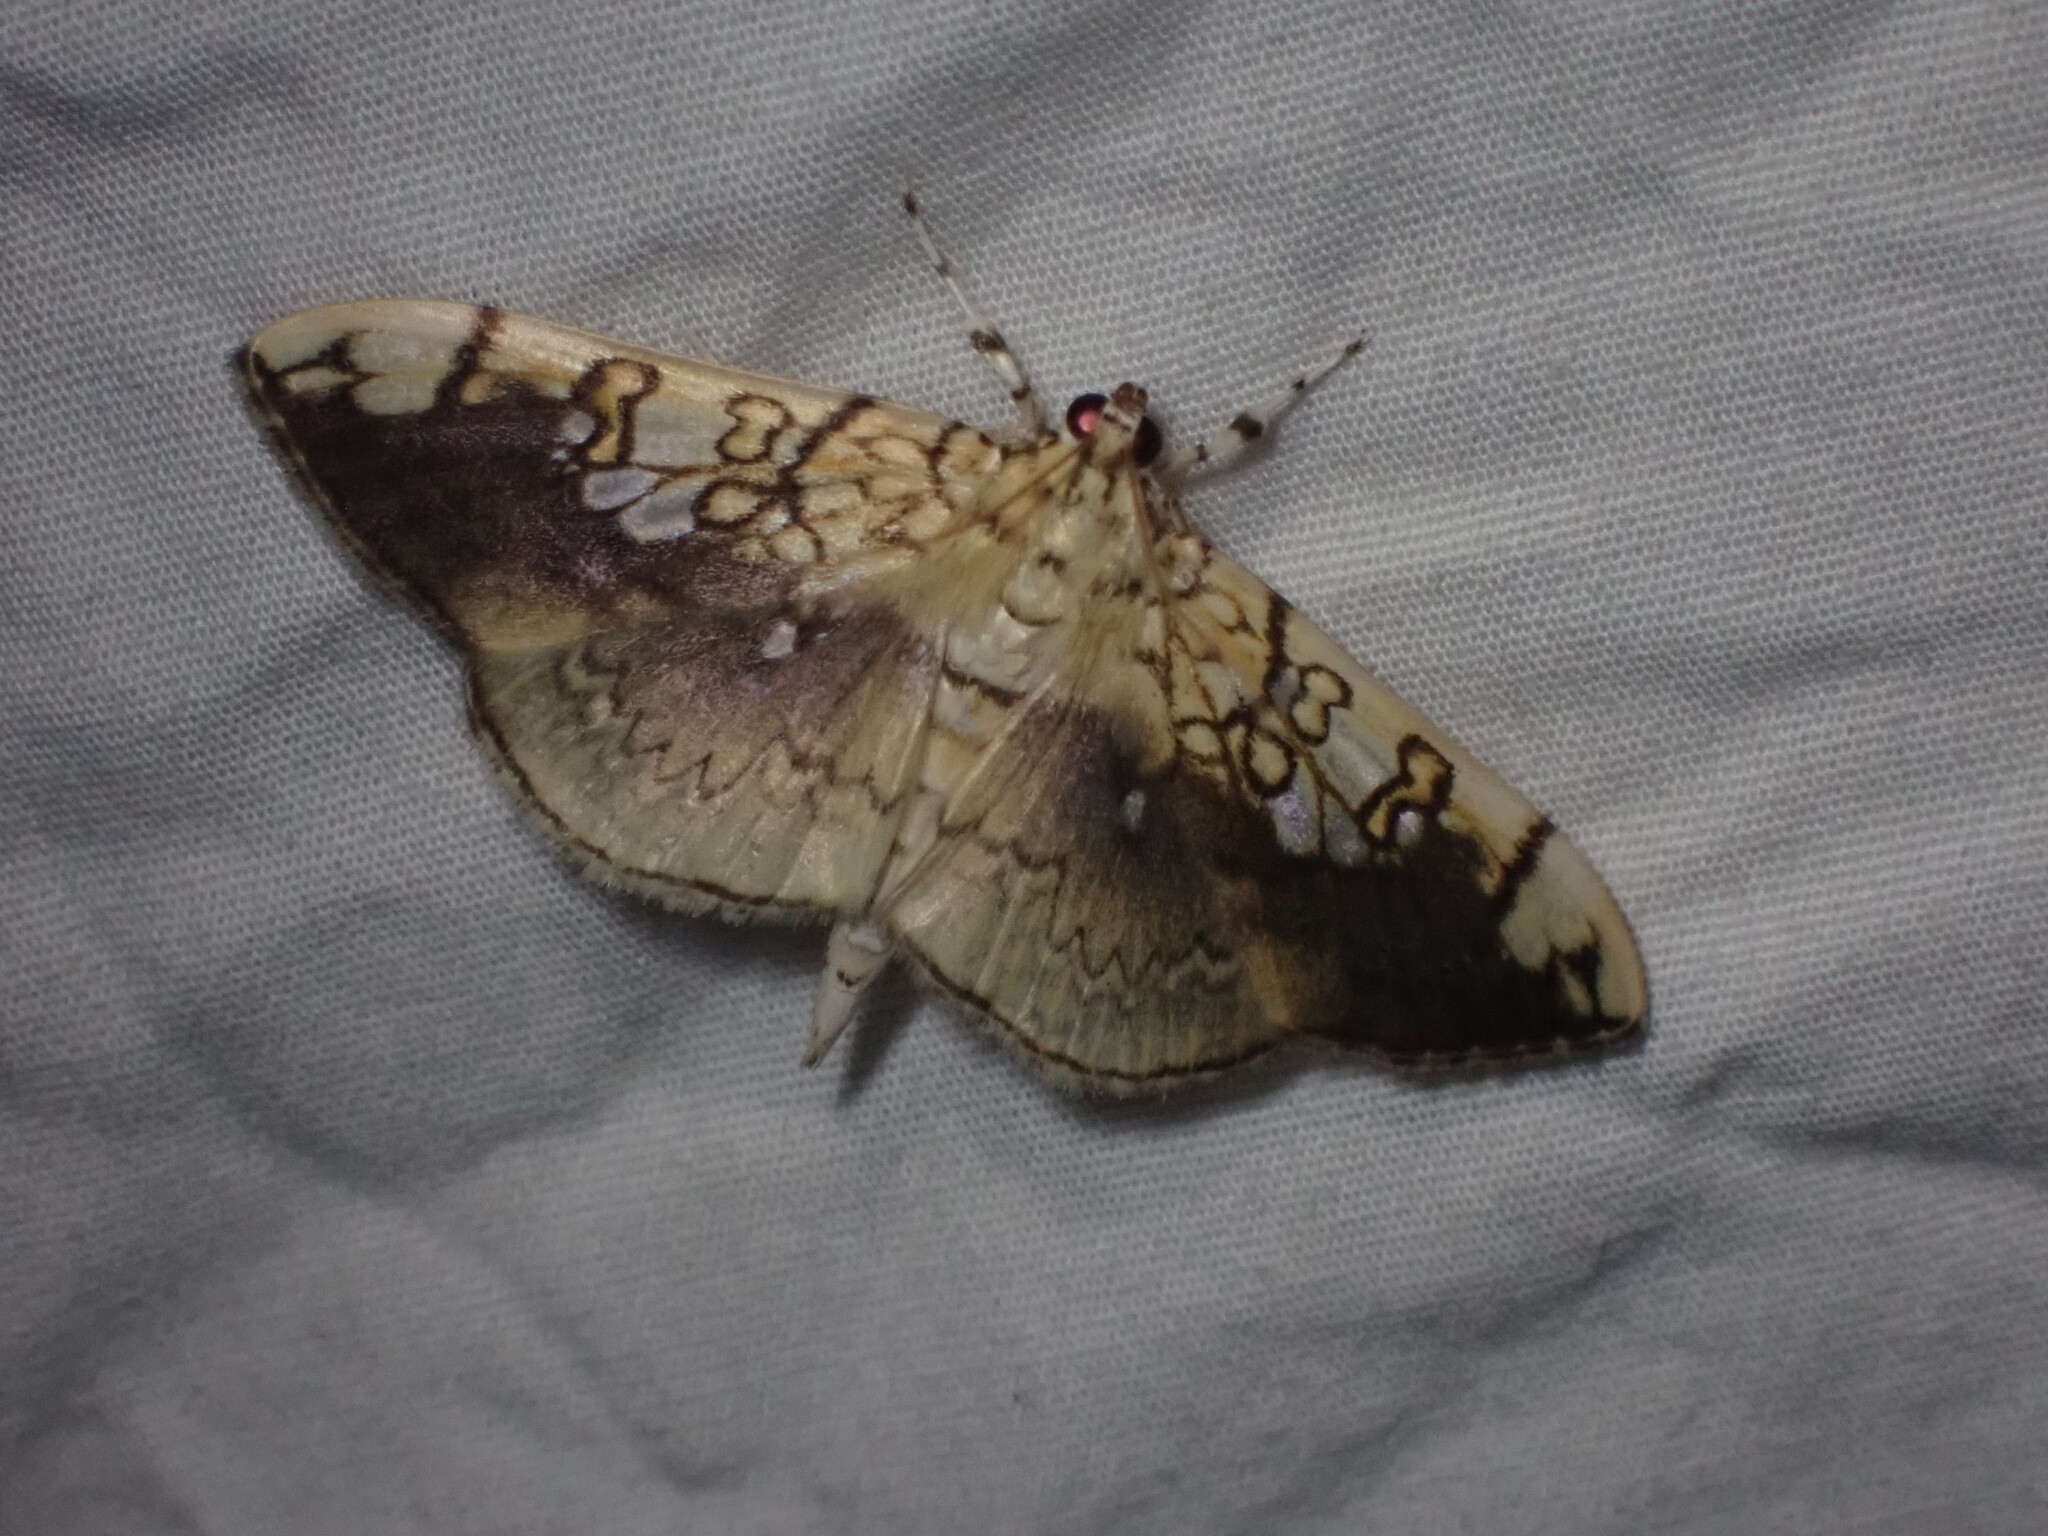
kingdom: Animalia
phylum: Arthropoda
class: Insecta
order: Lepidoptera
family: Crambidae
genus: Pantographa
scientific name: Pantographa limata
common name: Basswood leafroller moth
